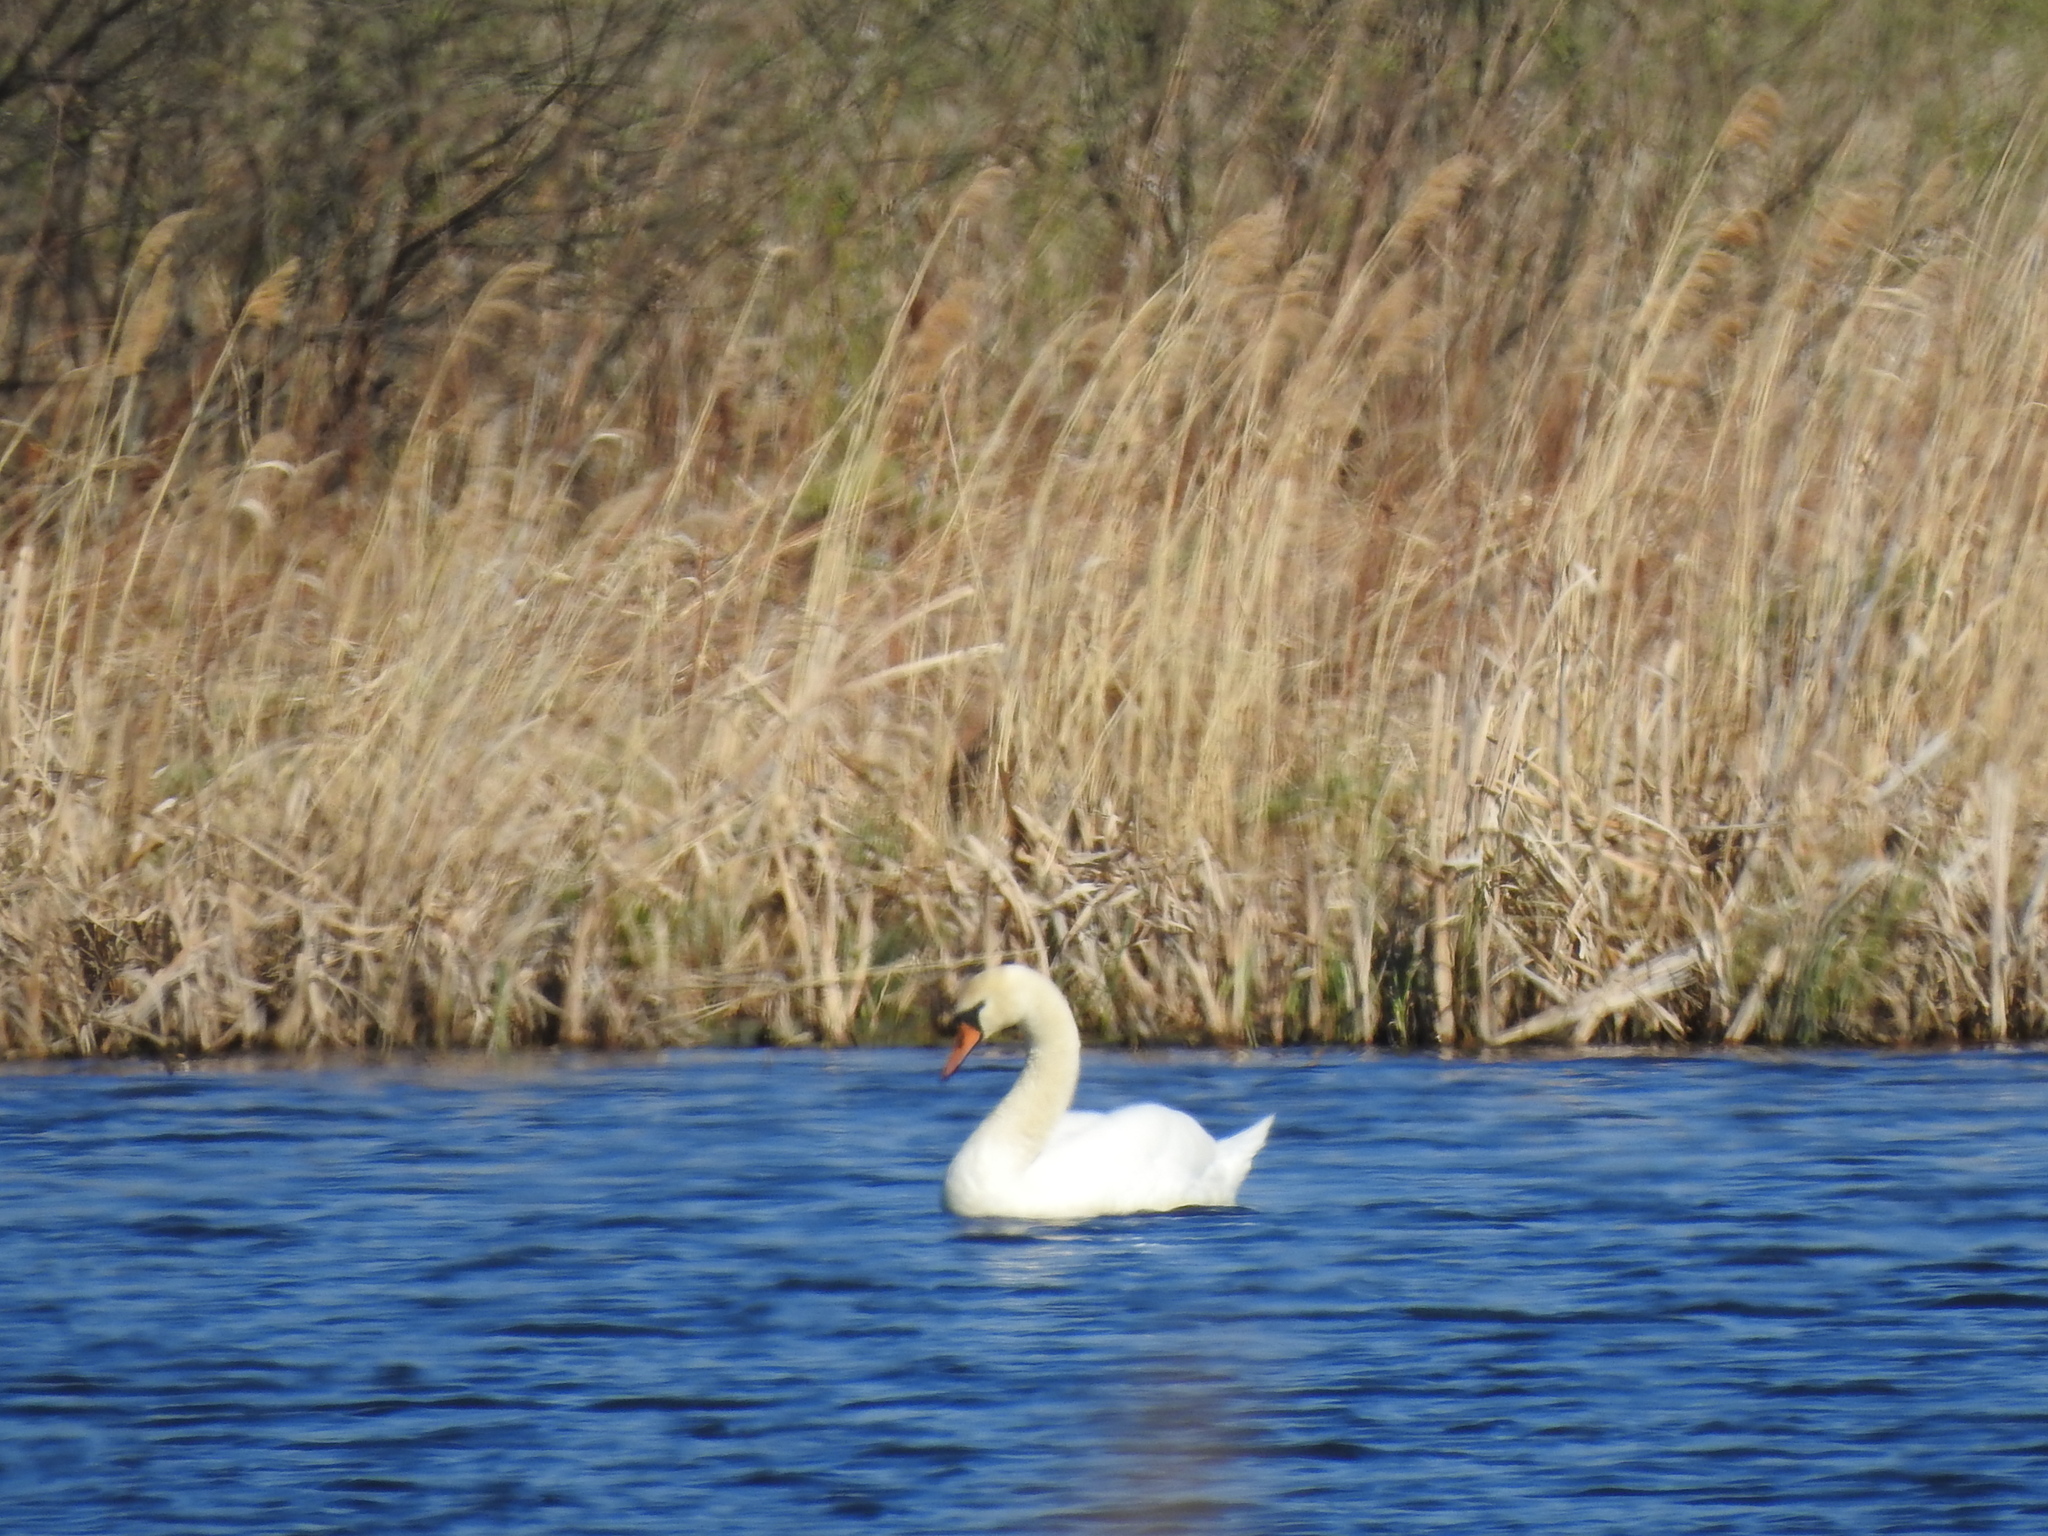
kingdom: Animalia
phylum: Chordata
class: Aves
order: Anseriformes
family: Anatidae
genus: Cygnus
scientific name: Cygnus olor
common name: Mute swan
